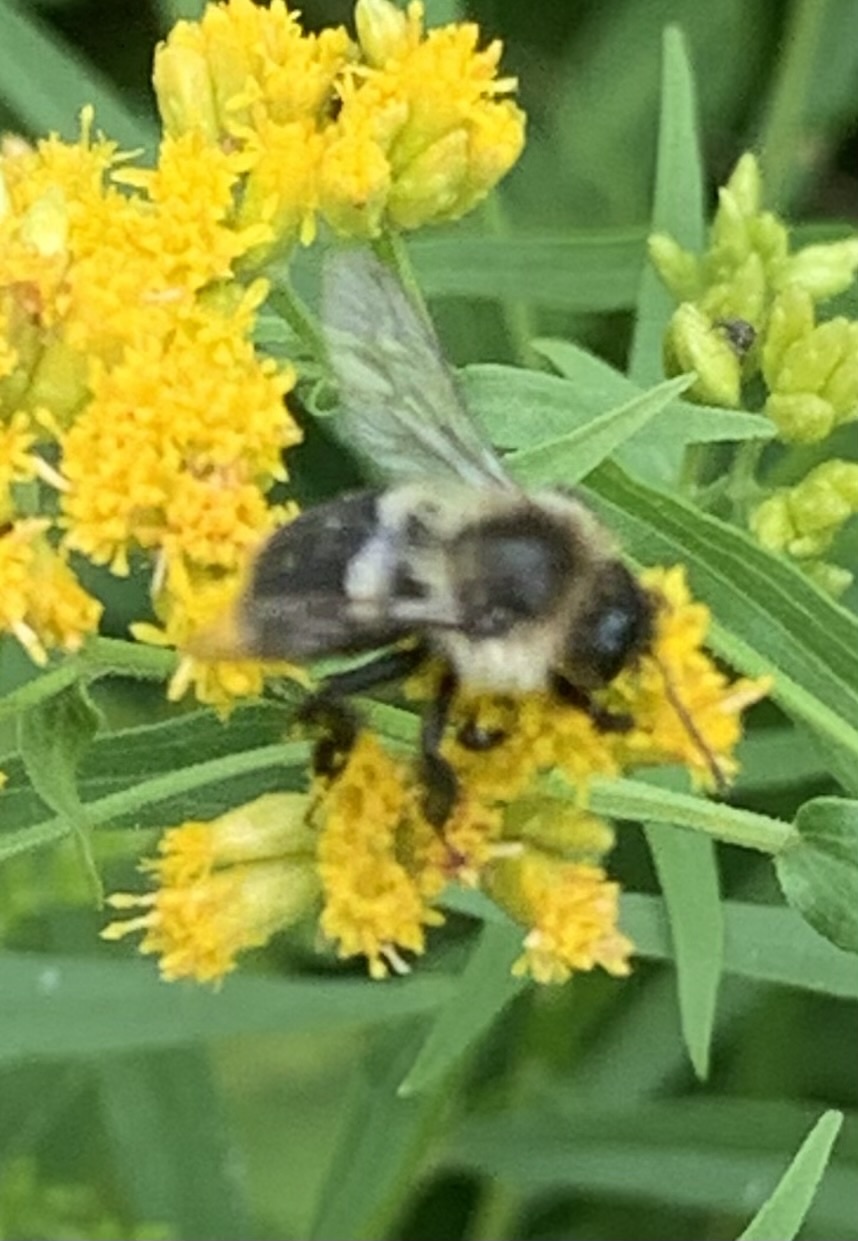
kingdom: Animalia
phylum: Arthropoda
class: Insecta
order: Hymenoptera
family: Apidae
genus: Bombus
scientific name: Bombus impatiens
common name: Common eastern bumble bee
